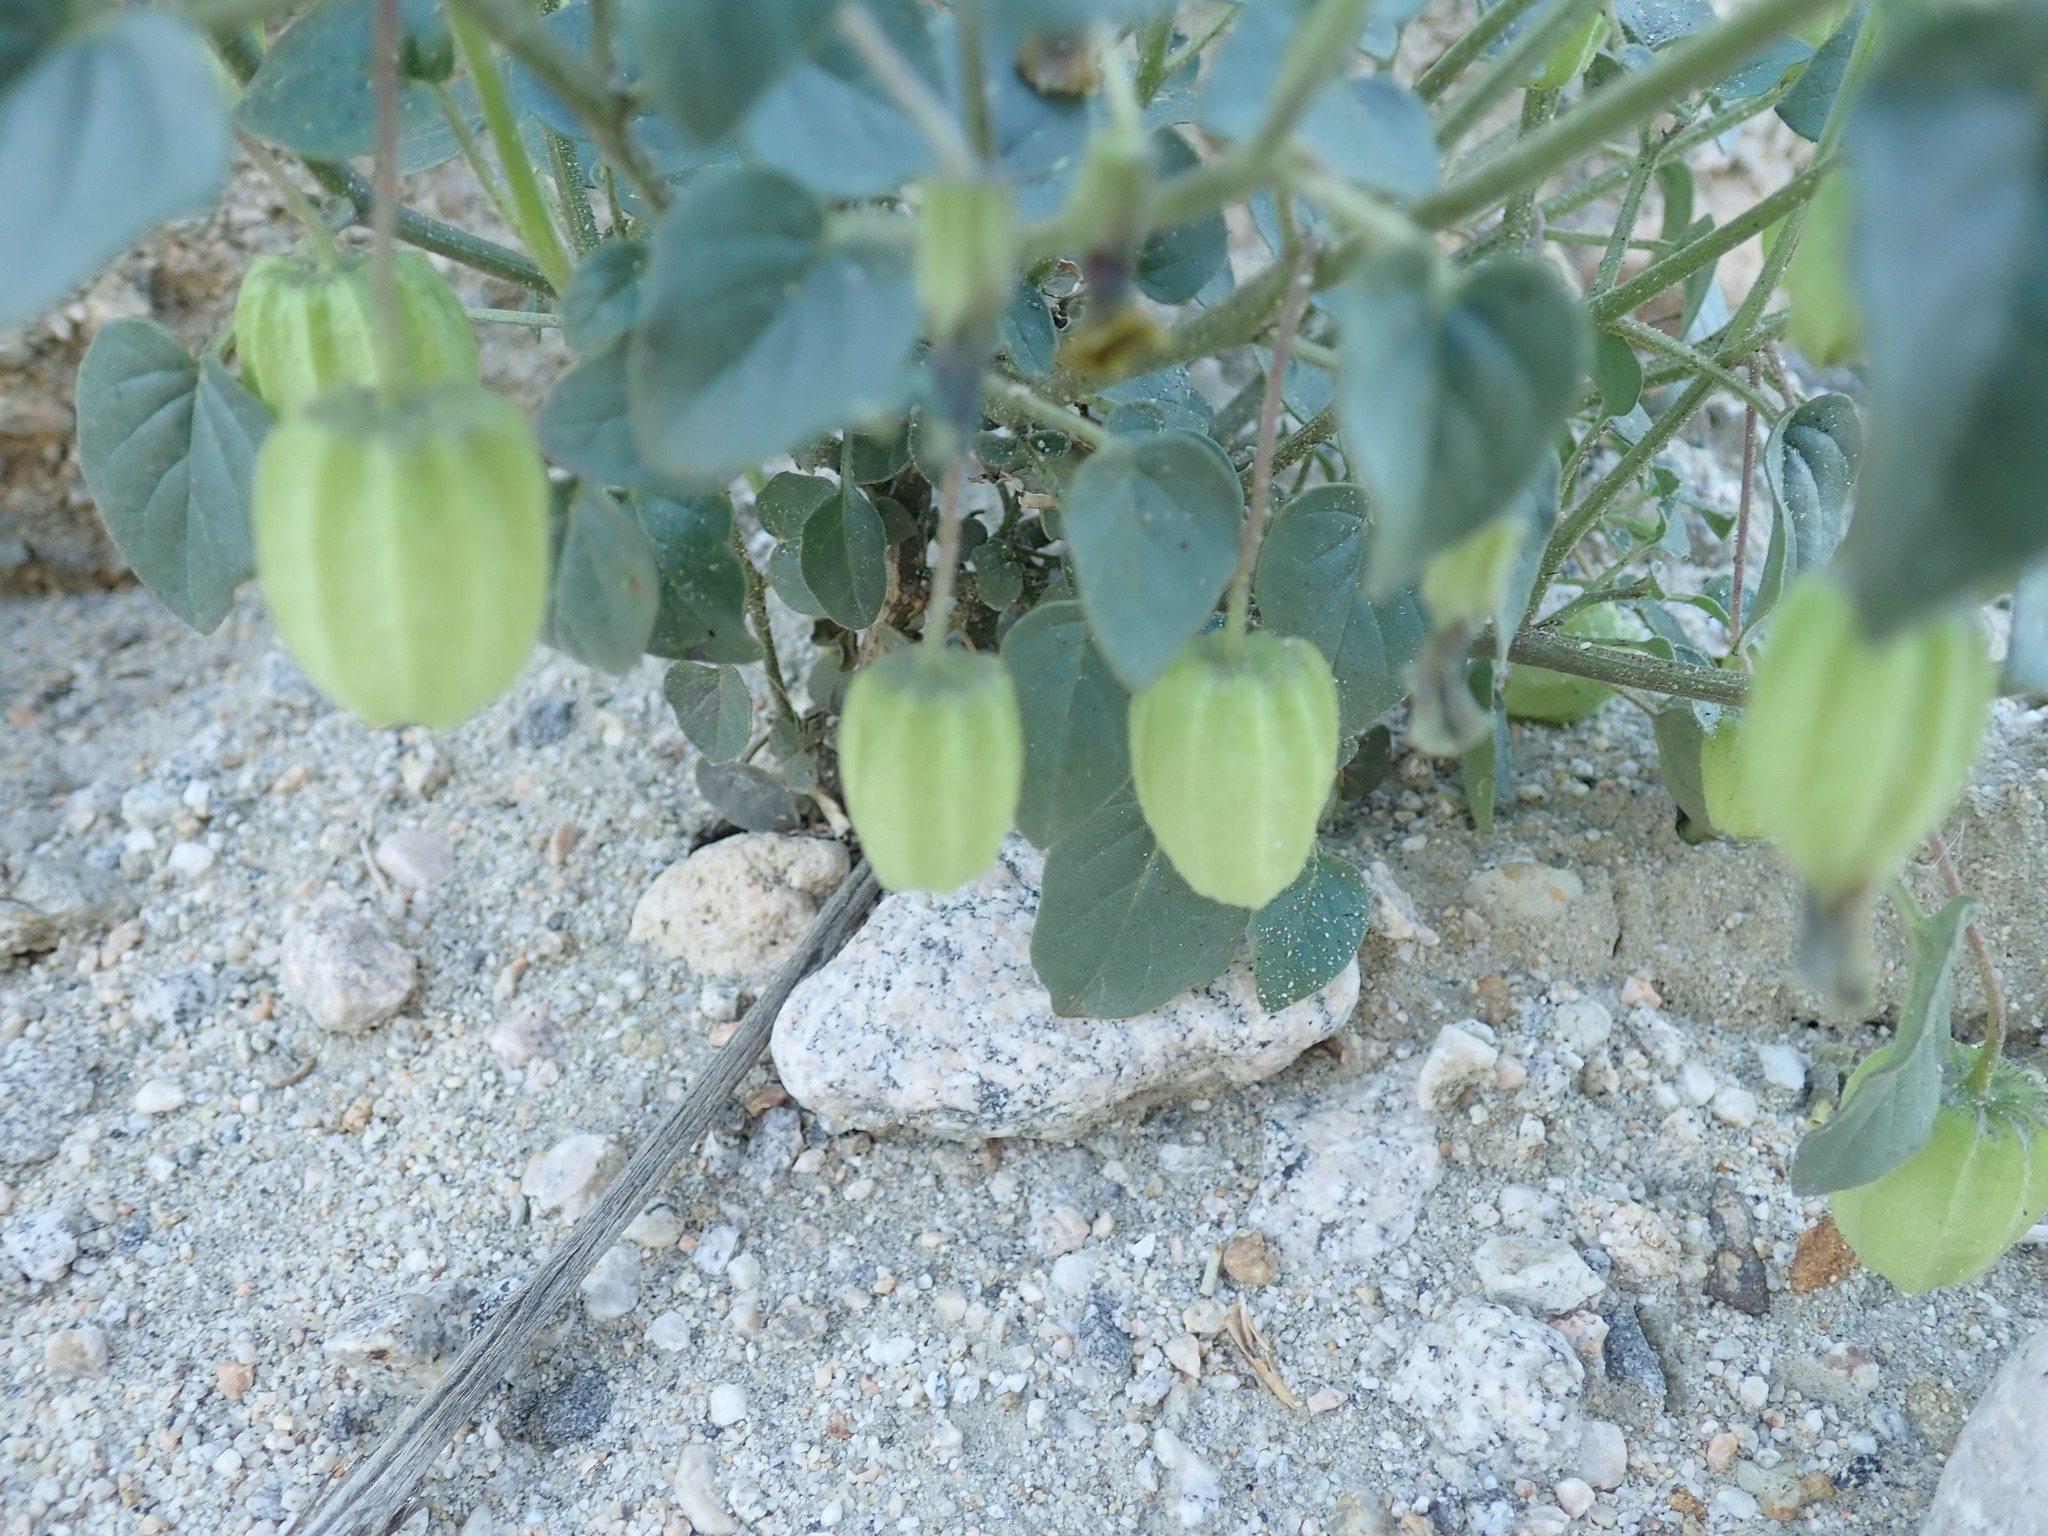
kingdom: Plantae
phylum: Tracheophyta
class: Magnoliopsida
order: Solanales
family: Solanaceae
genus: Physalis
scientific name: Physalis crassifolia
